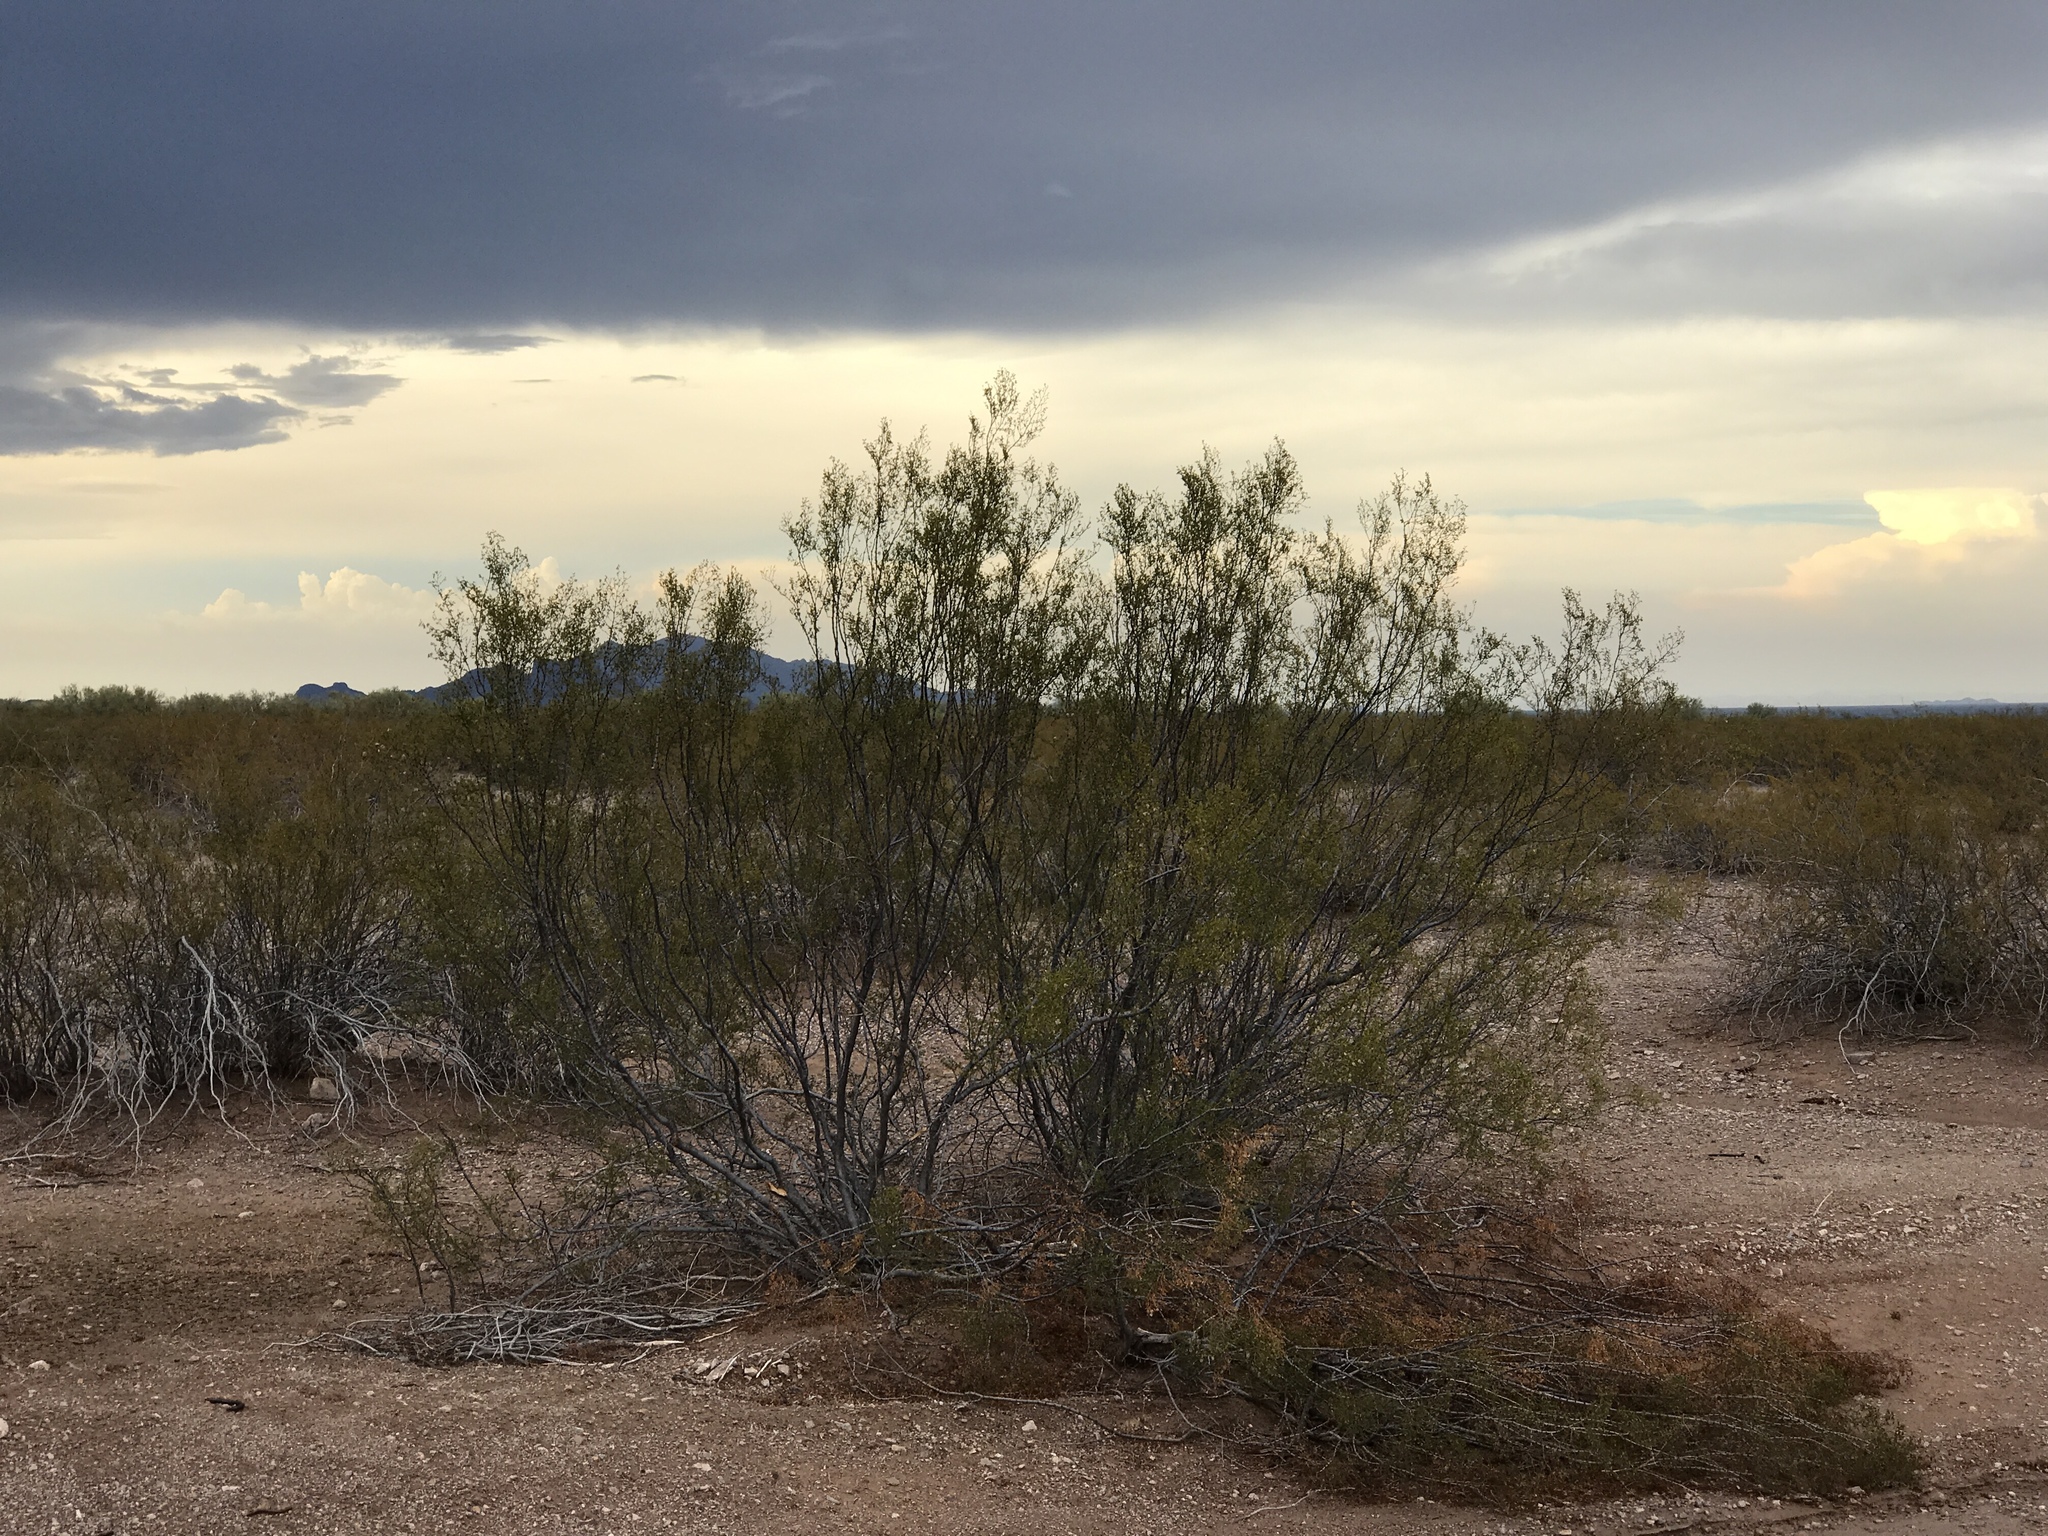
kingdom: Plantae
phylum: Tracheophyta
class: Magnoliopsida
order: Zygophyllales
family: Zygophyllaceae
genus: Larrea
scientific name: Larrea tridentata
